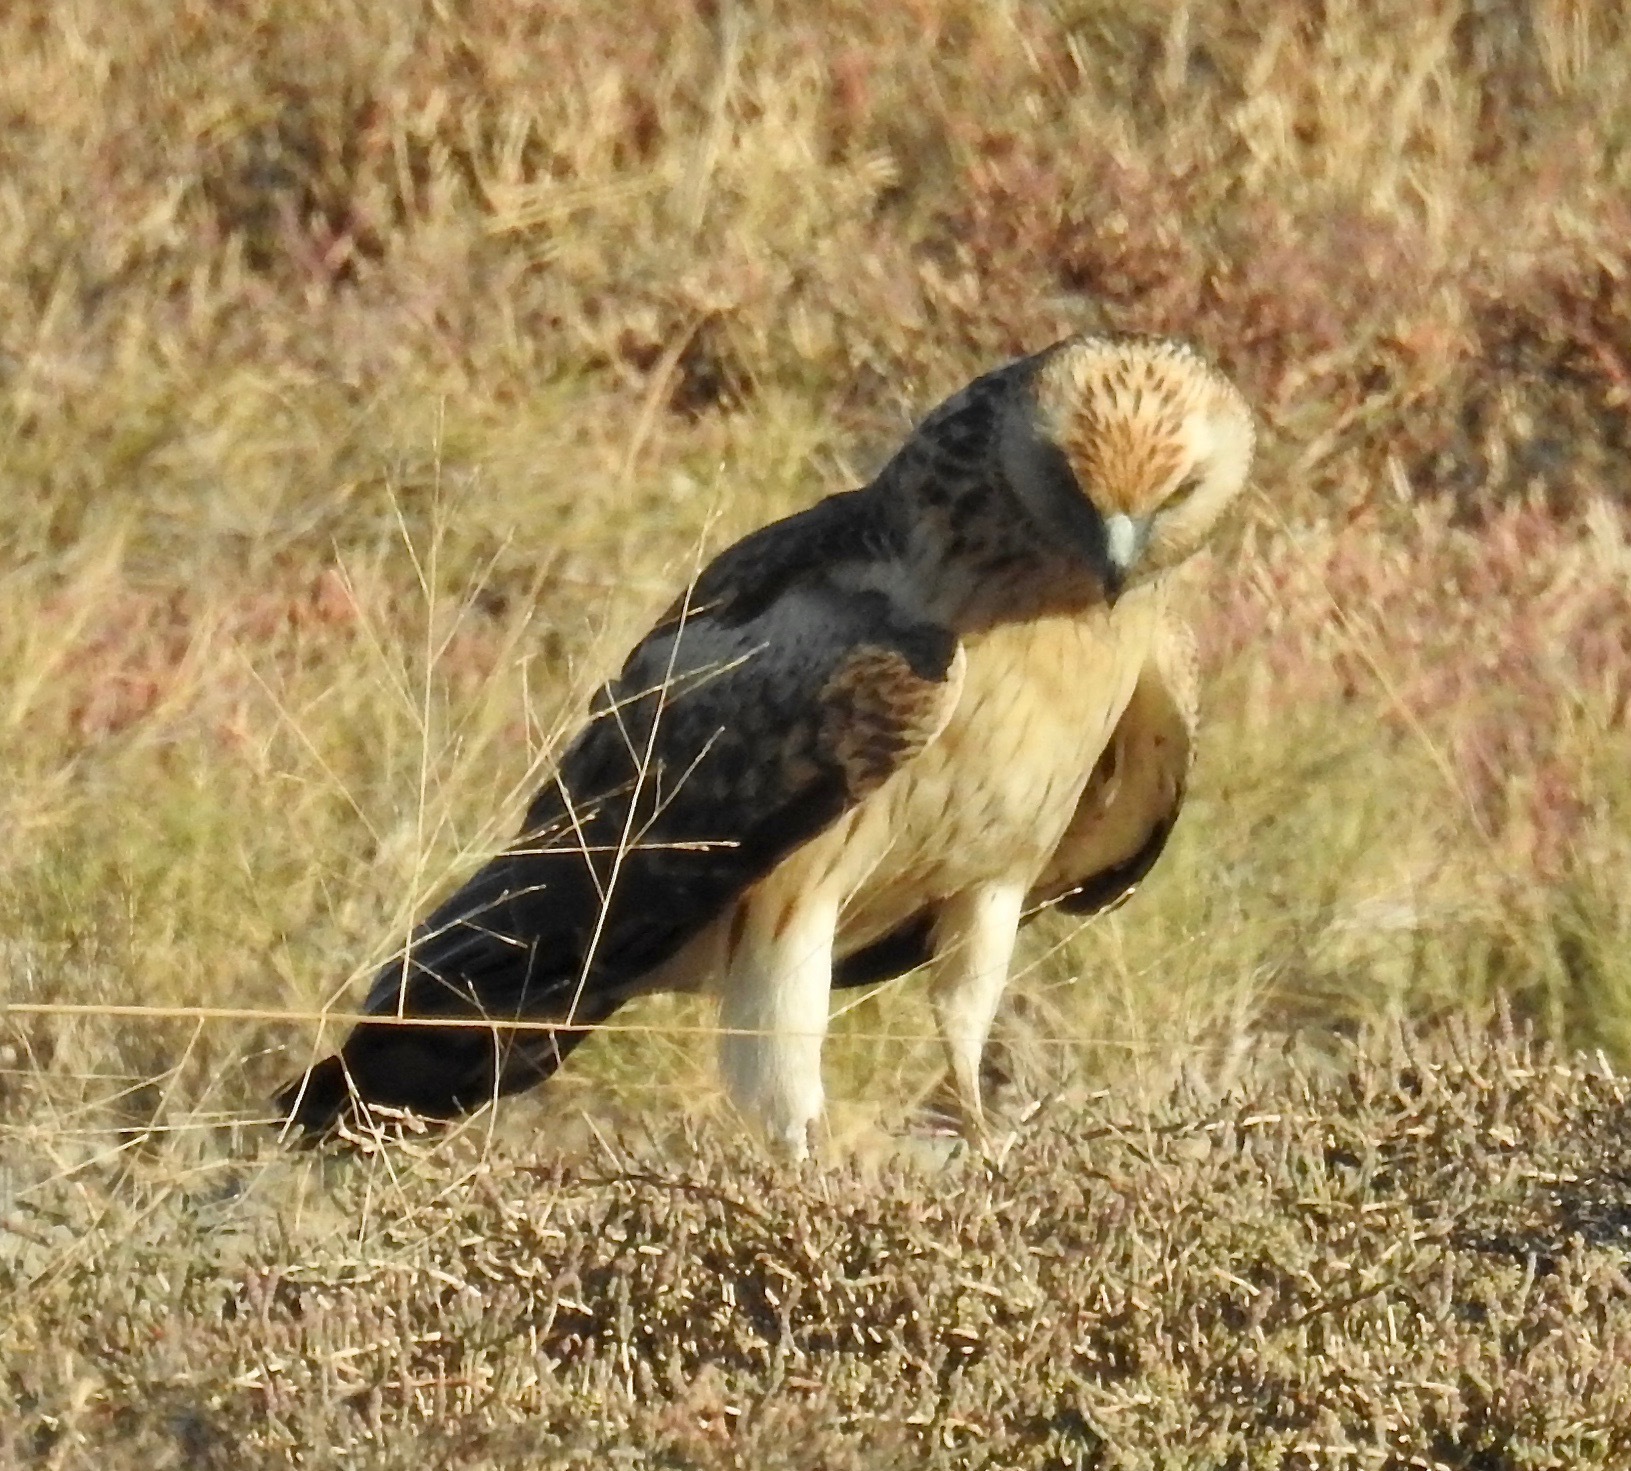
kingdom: Animalia
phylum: Chordata
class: Aves
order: Accipitriformes
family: Accipitridae
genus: Circus
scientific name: Circus assimilis
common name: Spotted harrier
